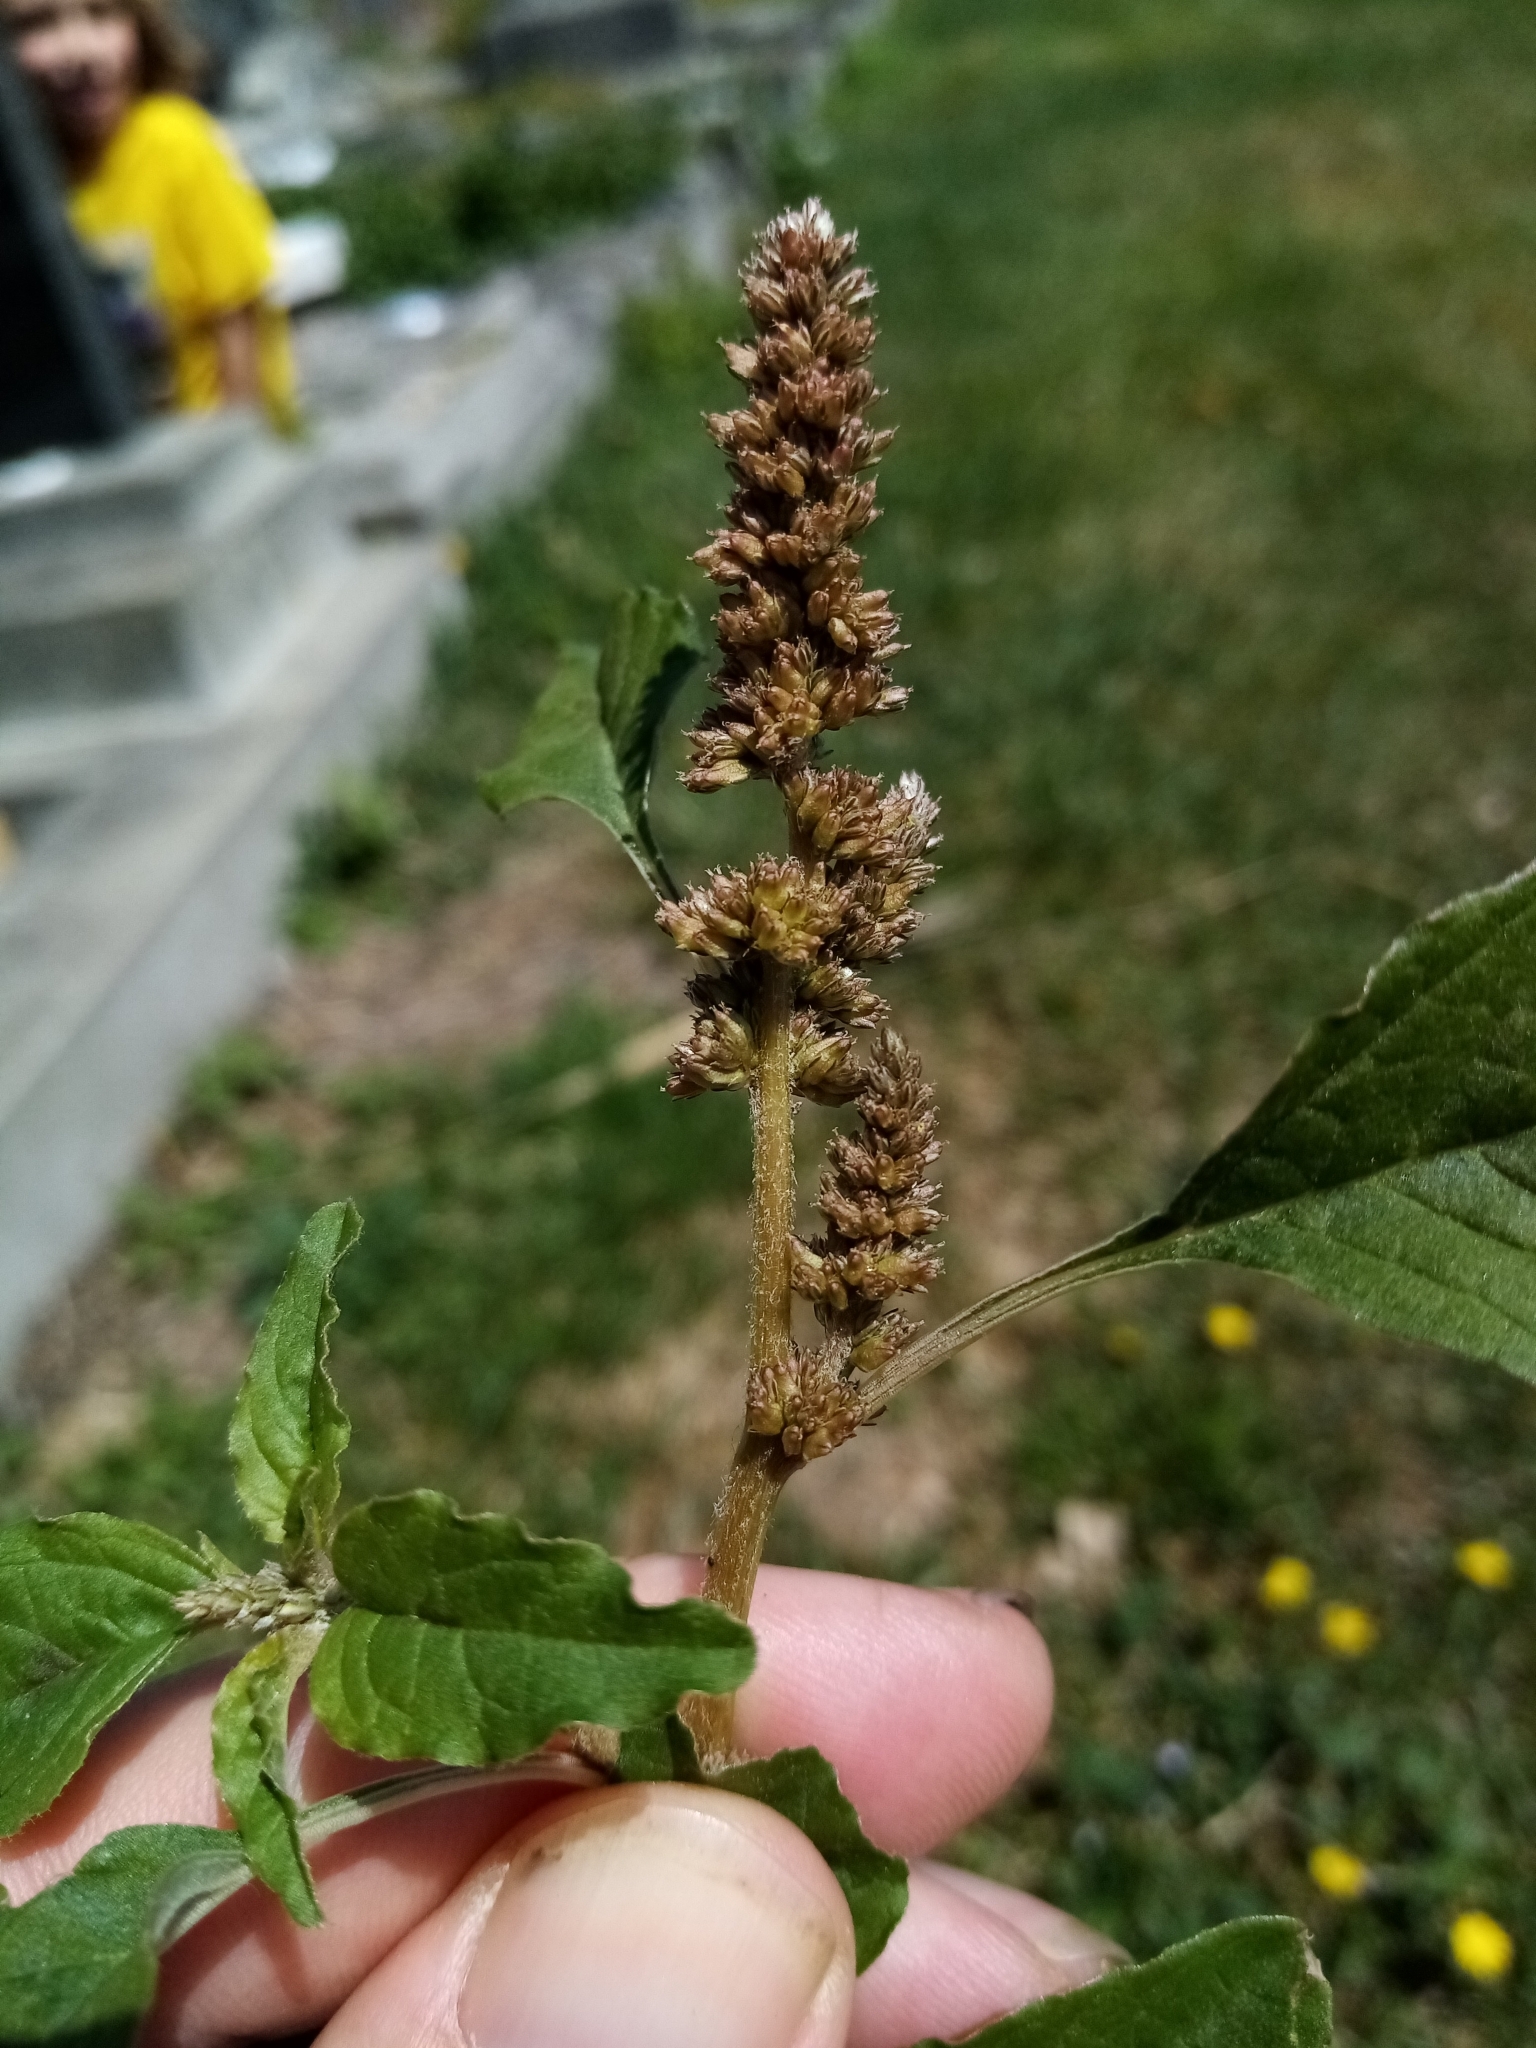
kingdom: Plantae
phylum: Tracheophyta
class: Magnoliopsida
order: Caryophyllales
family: Amaranthaceae
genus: Amaranthus
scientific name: Amaranthus deflexus
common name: Perennial pigweed
